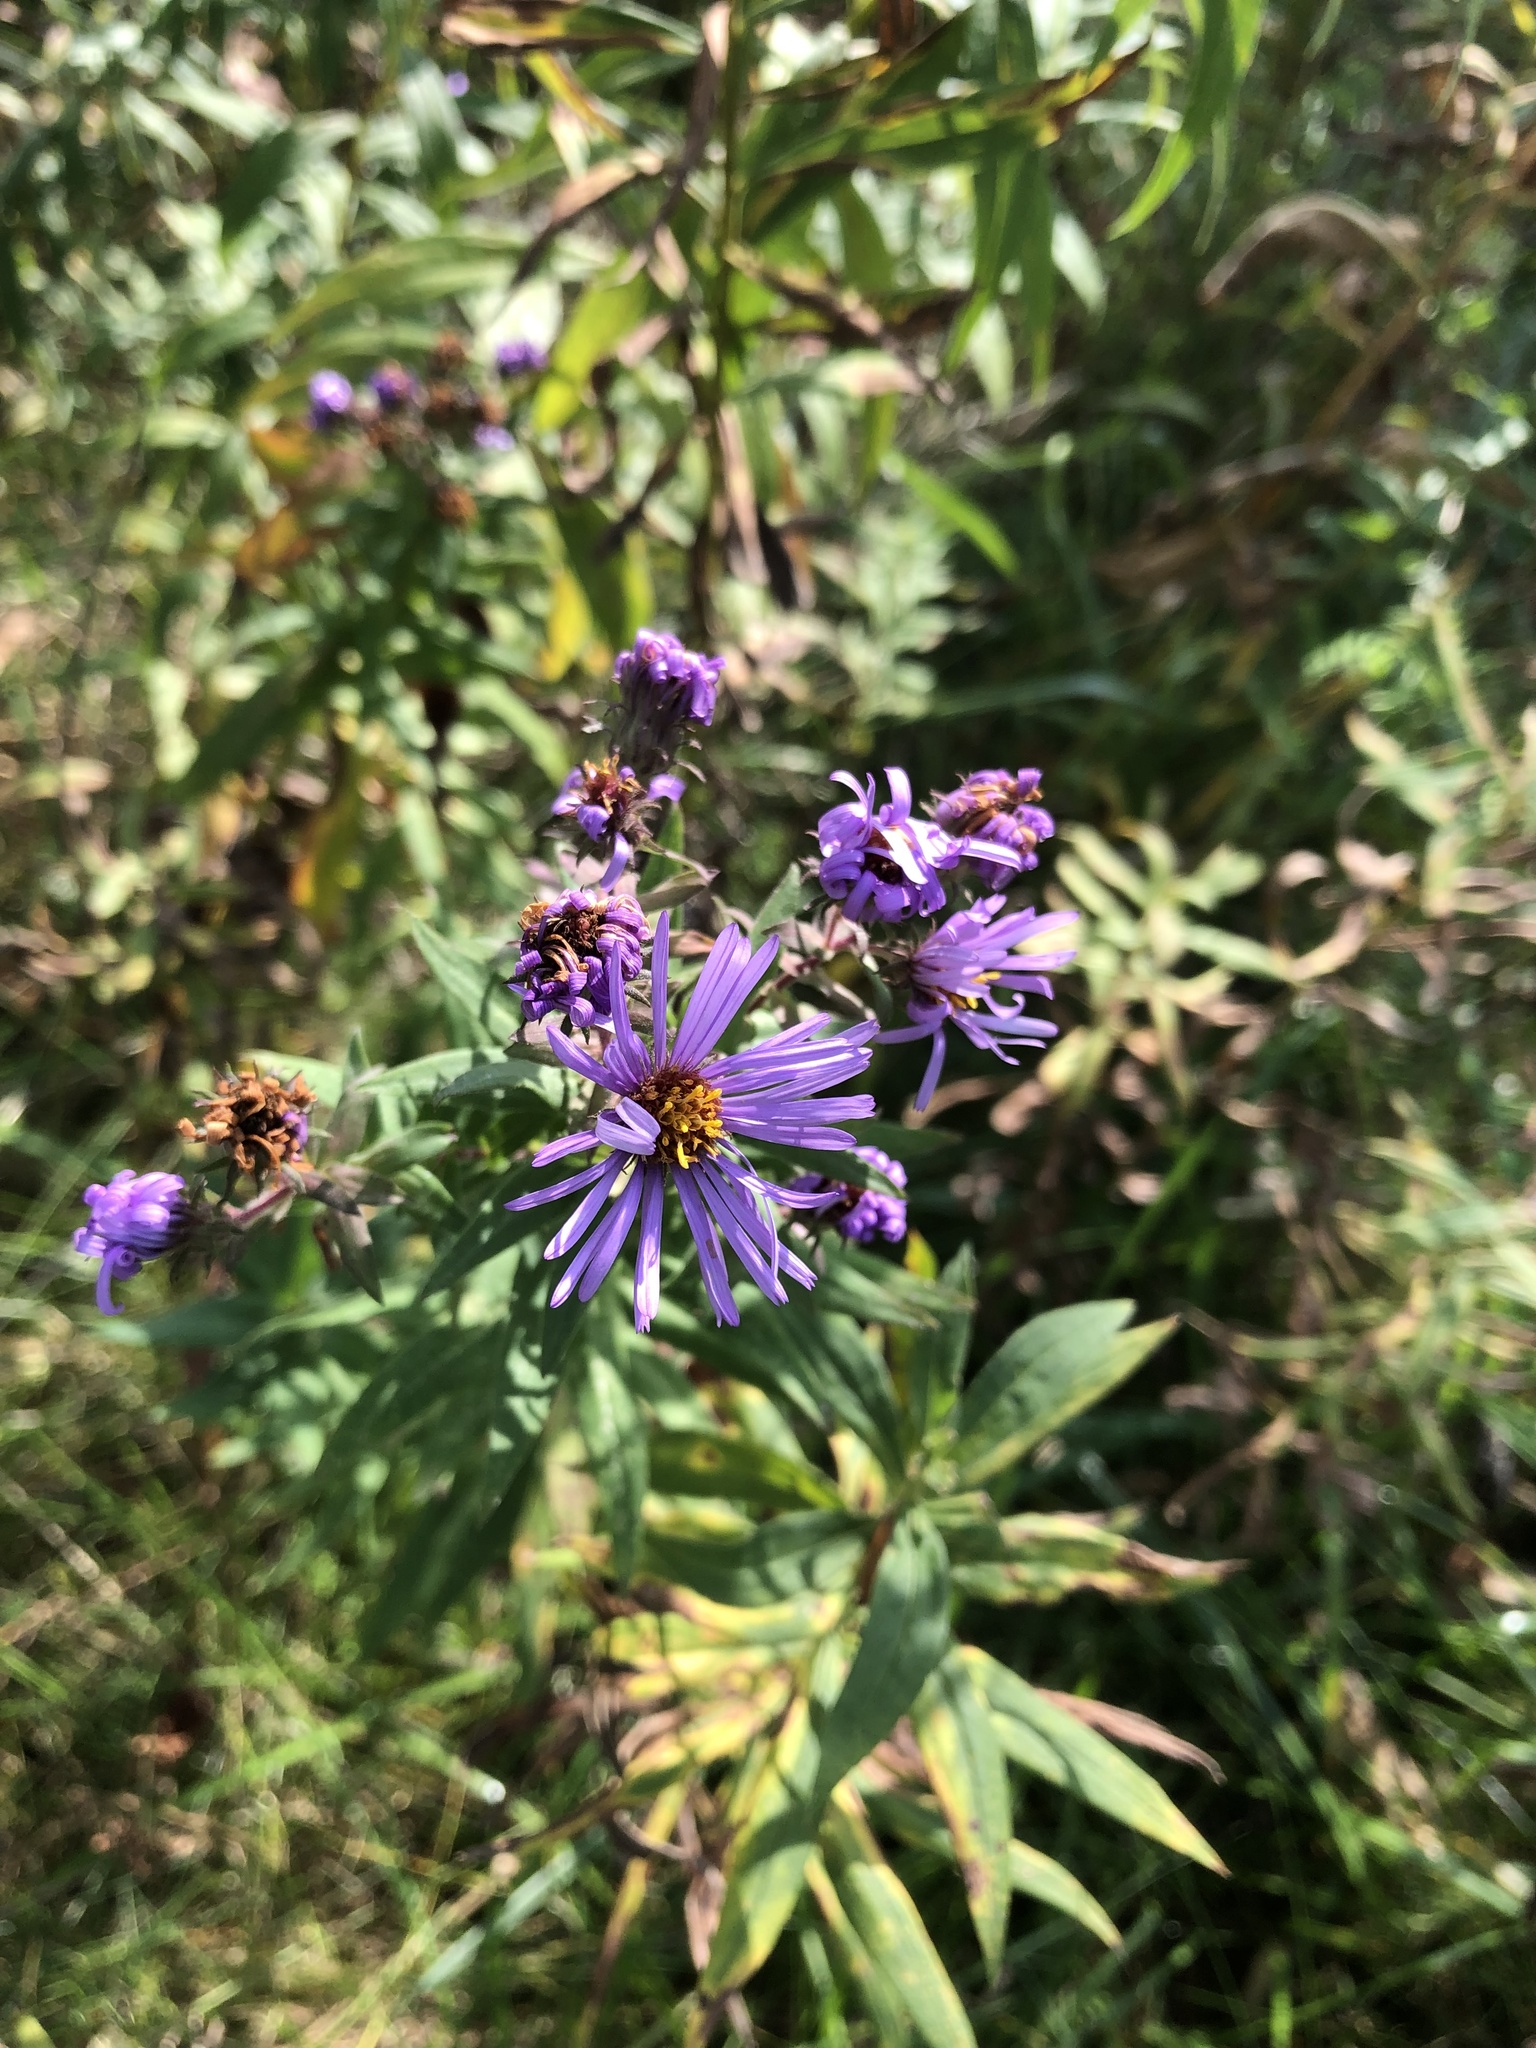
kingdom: Plantae
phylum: Tracheophyta
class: Magnoliopsida
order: Asterales
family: Asteraceae
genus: Symphyotrichum
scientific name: Symphyotrichum novae-angliae
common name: Michaelmas daisy
